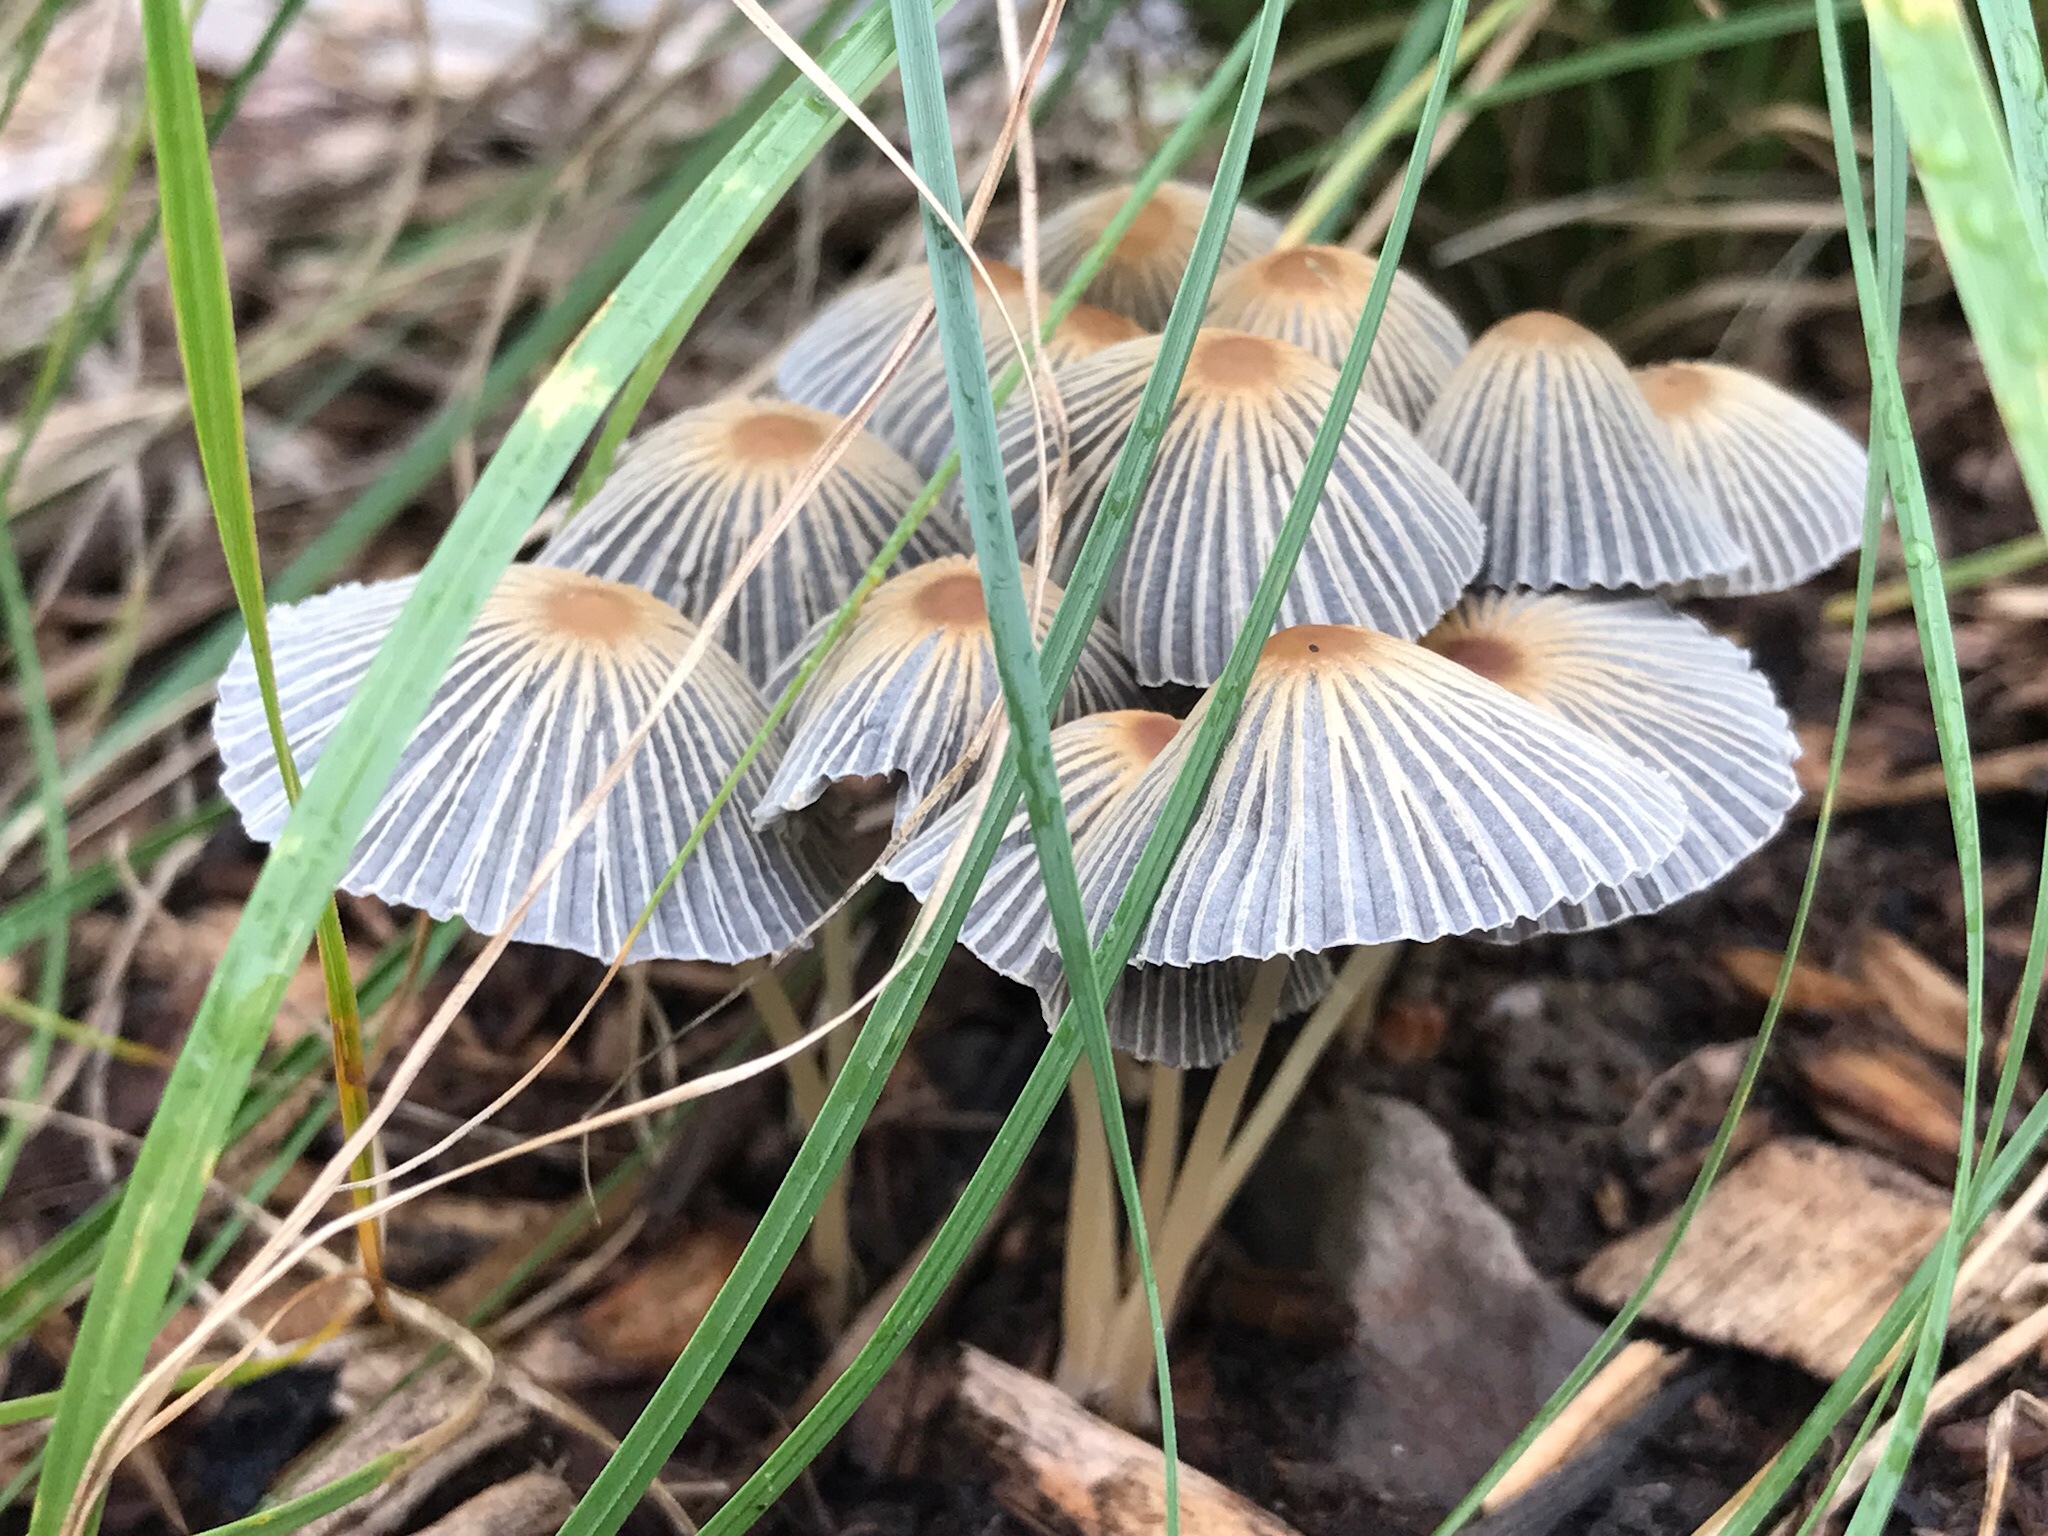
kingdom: Fungi
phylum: Basidiomycota
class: Agaricomycetes
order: Agaricales
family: Psathyrellaceae
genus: Parasola
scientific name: Parasola plicatilis
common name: Pleated inkcap
